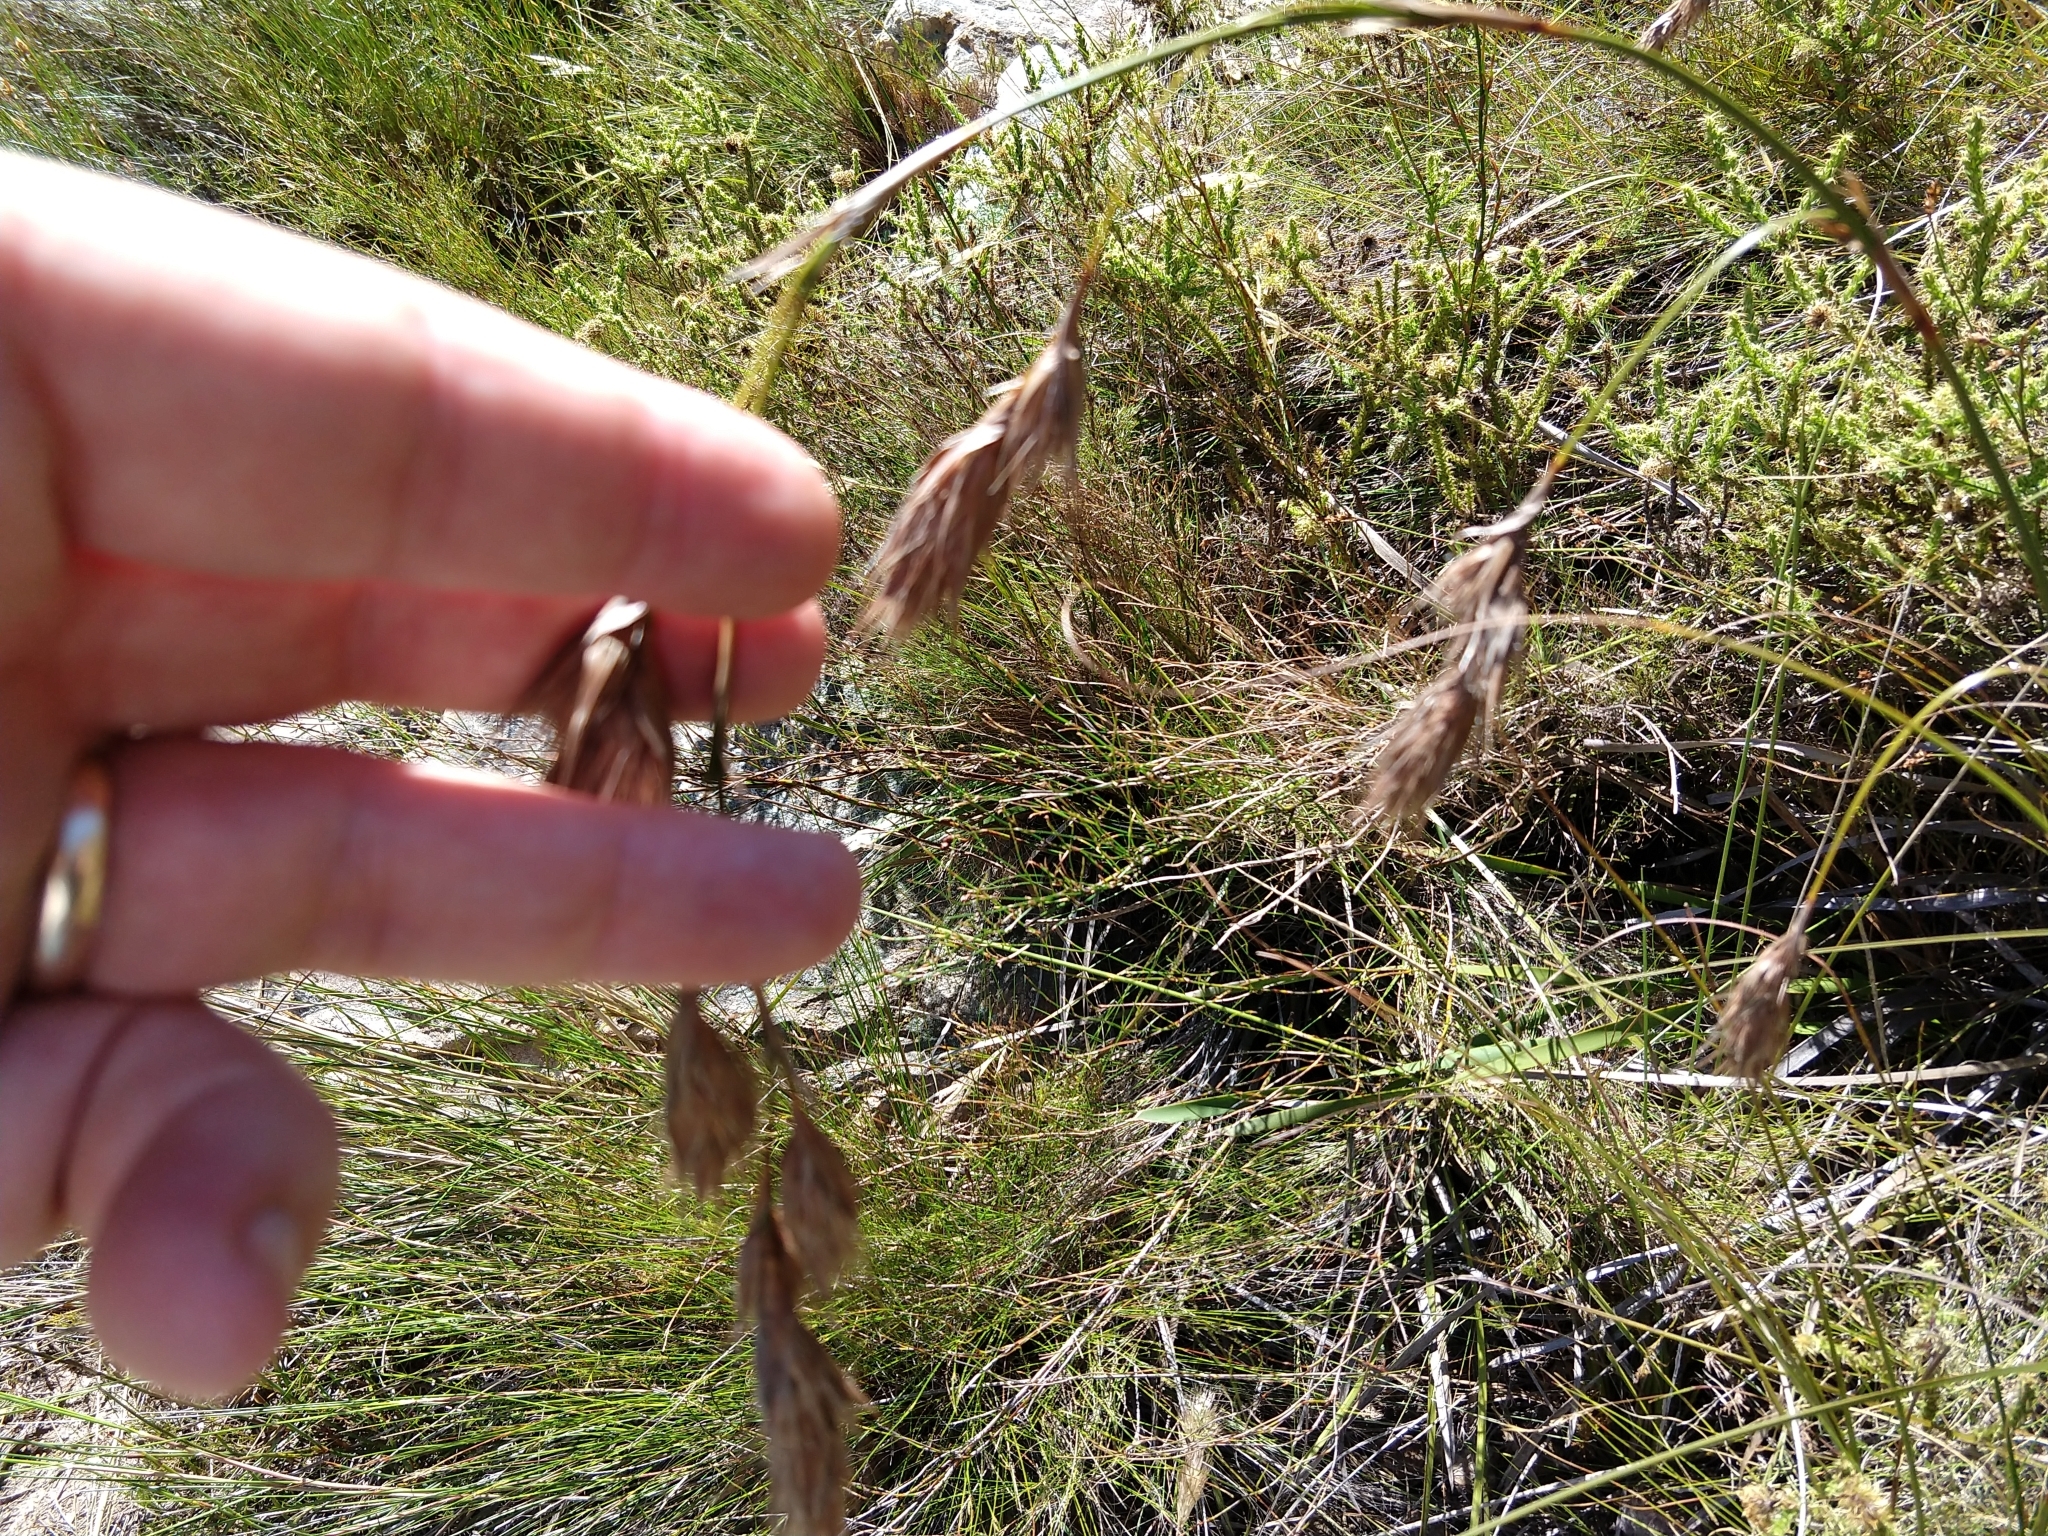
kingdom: Plantae
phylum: Tracheophyta
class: Liliopsida
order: Poales
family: Cyperaceae
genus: Tetraria
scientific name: Tetraria bromoides
